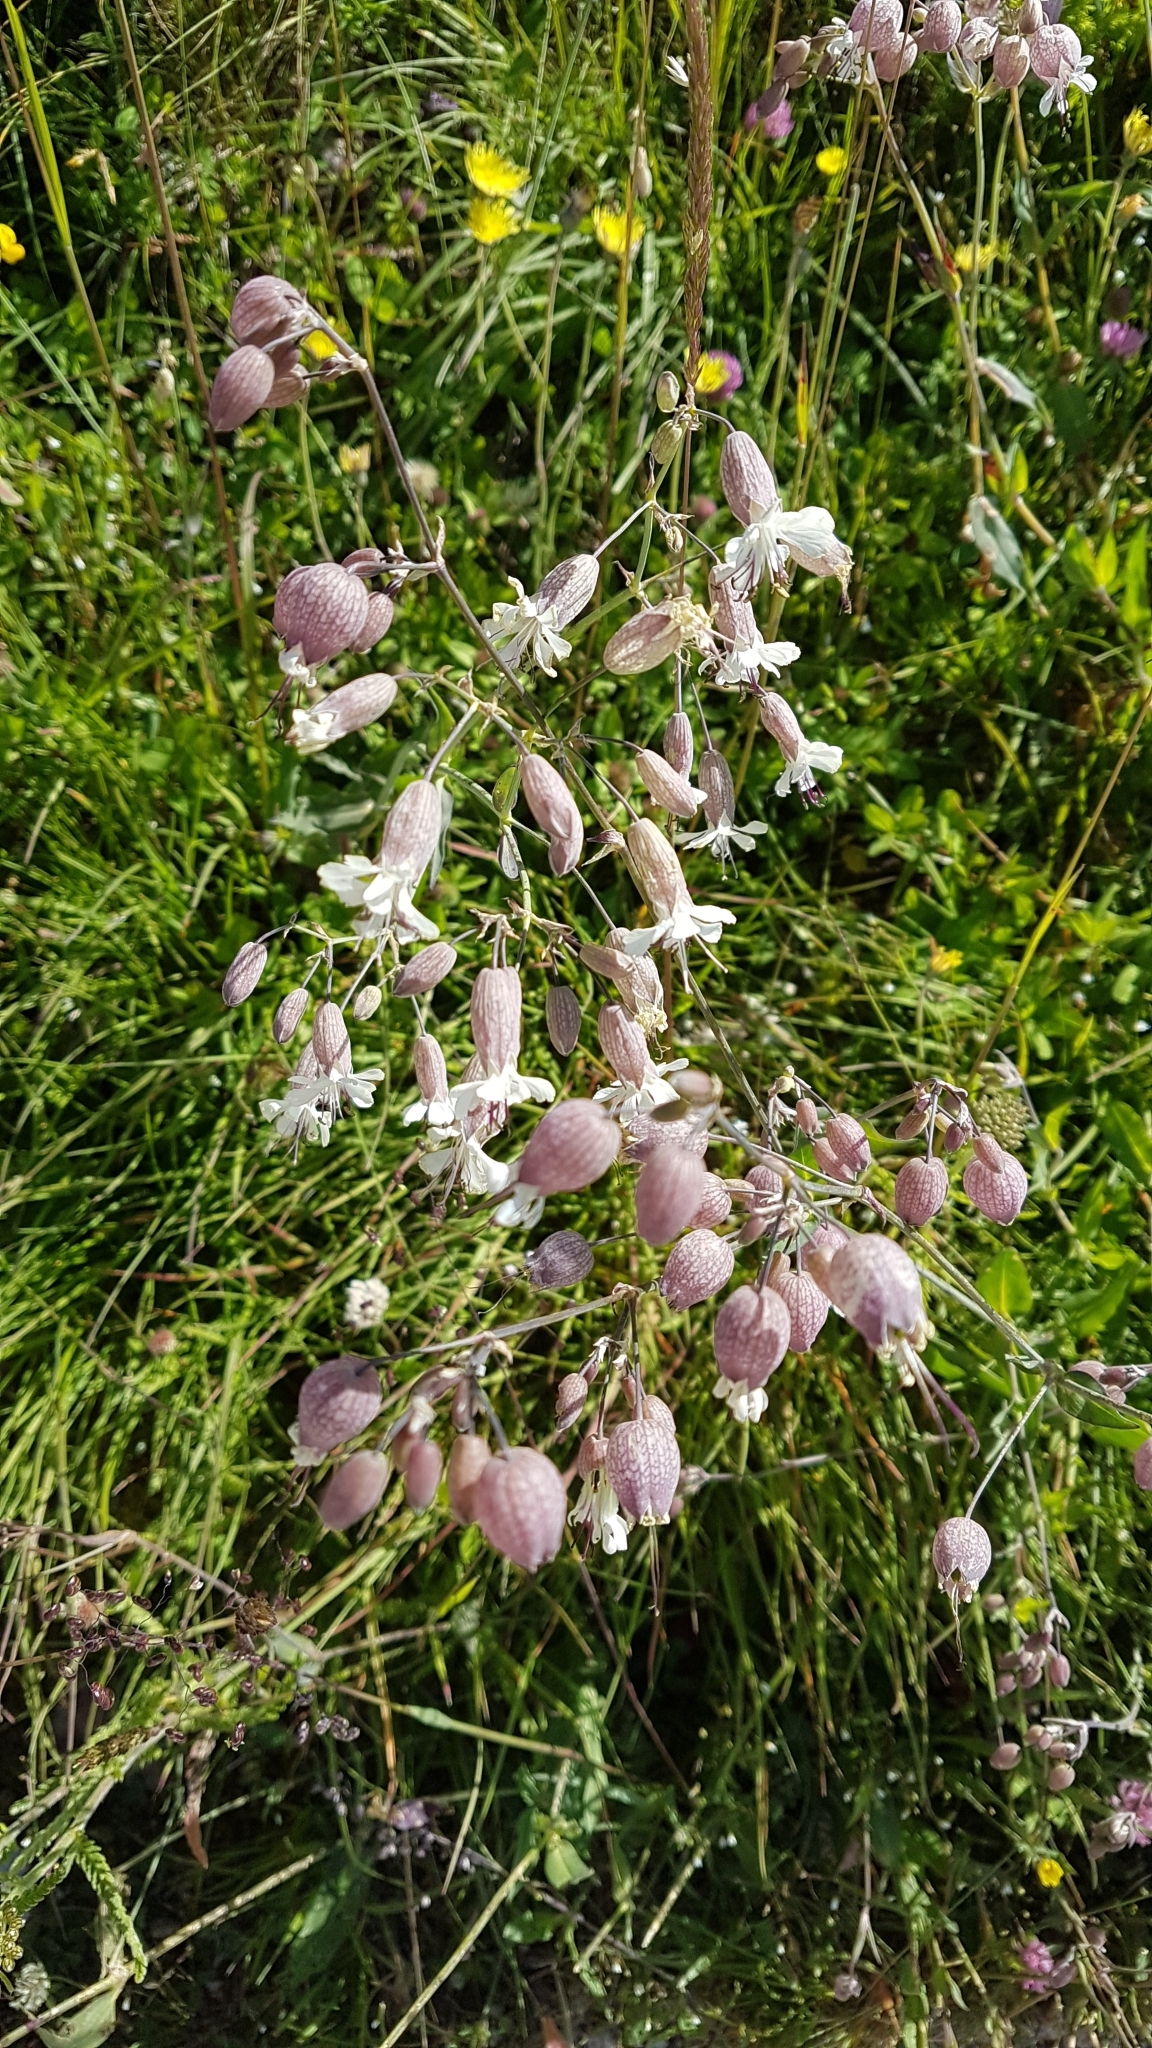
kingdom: Plantae
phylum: Tracheophyta
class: Magnoliopsida
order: Caryophyllales
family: Caryophyllaceae
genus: Silene
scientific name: Silene vulgaris
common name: Bladder campion
